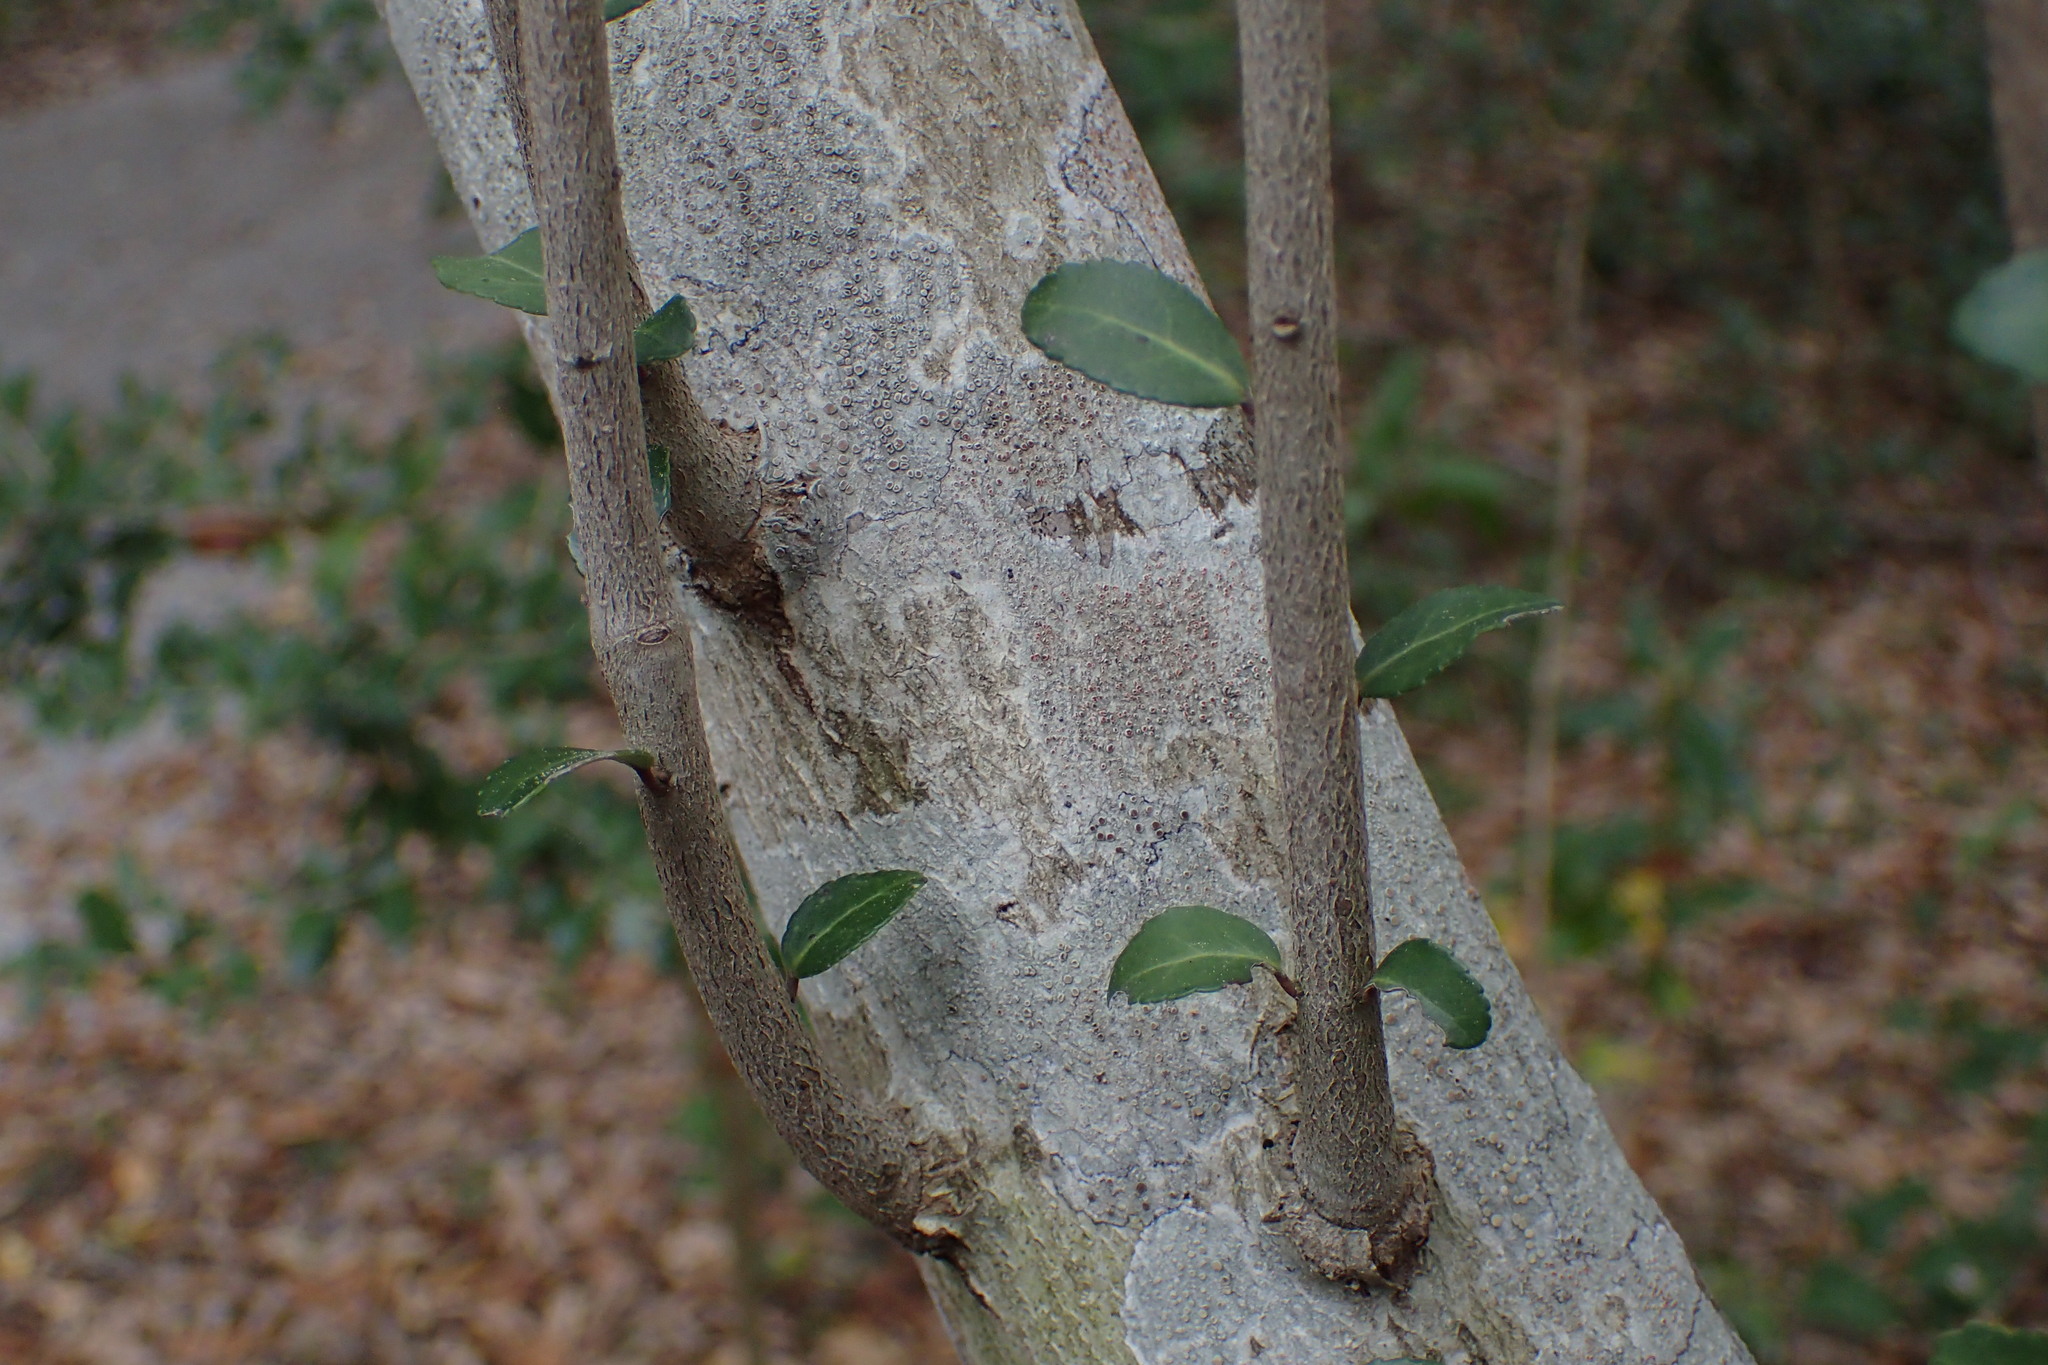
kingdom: Plantae
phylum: Tracheophyta
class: Magnoliopsida
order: Aquifoliales
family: Aquifoliaceae
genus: Ilex
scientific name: Ilex vomitoria
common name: Yaupon holly
